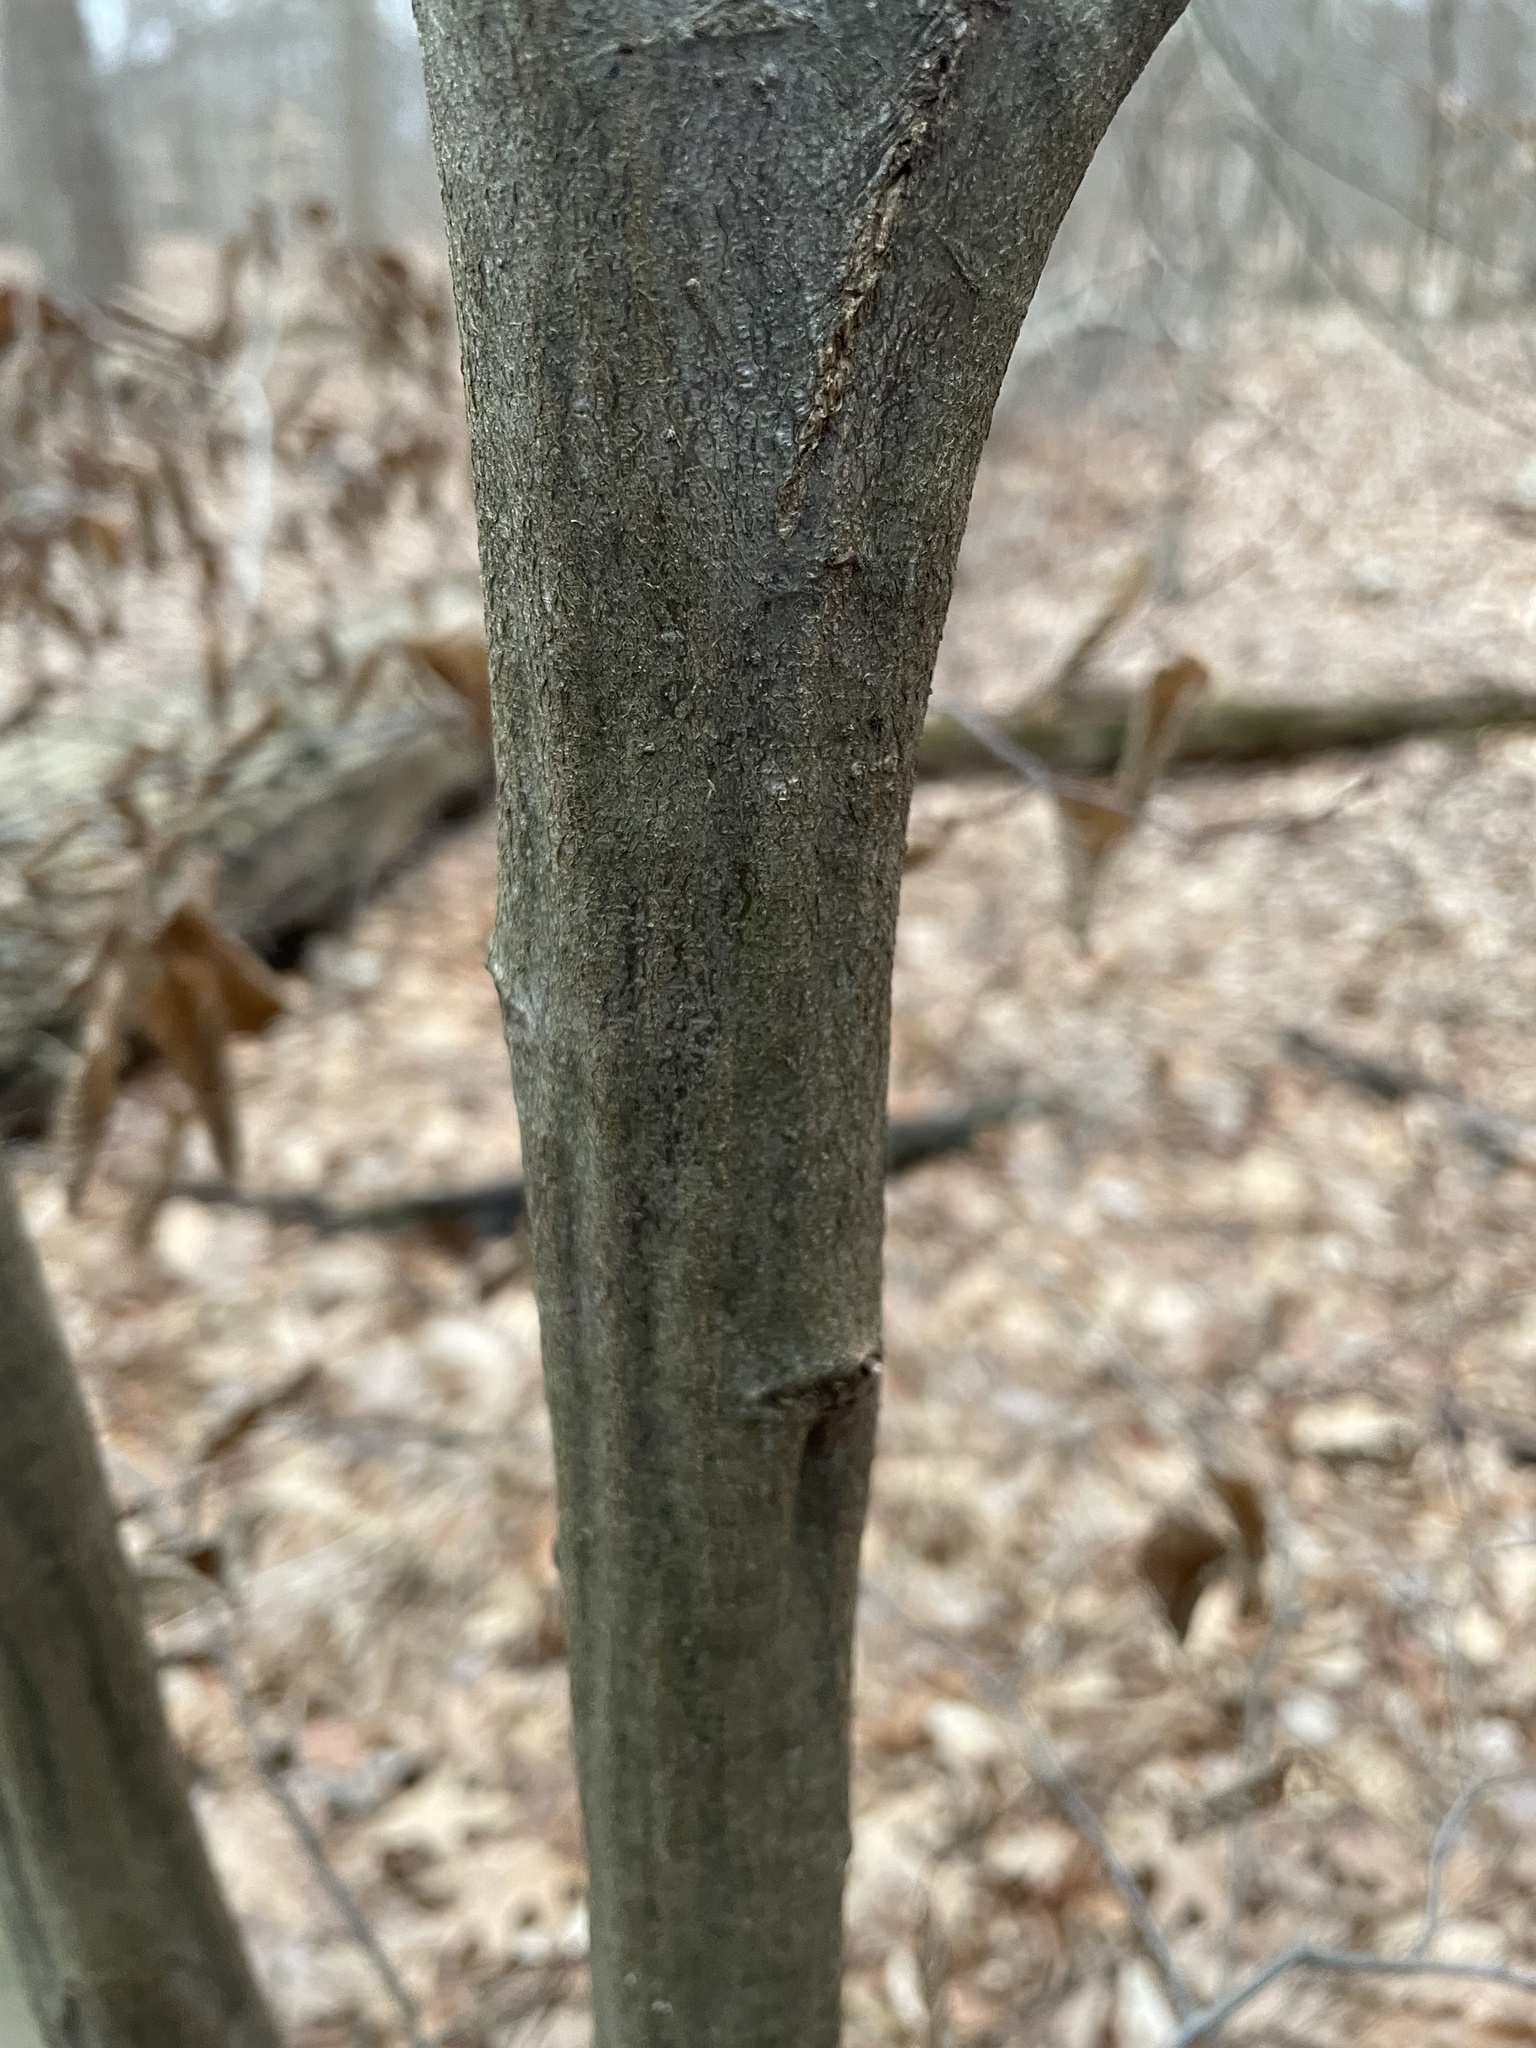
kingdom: Plantae
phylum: Tracheophyta
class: Magnoliopsida
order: Fagales
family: Betulaceae
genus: Carpinus
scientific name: Carpinus caroliniana
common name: American hornbeam
